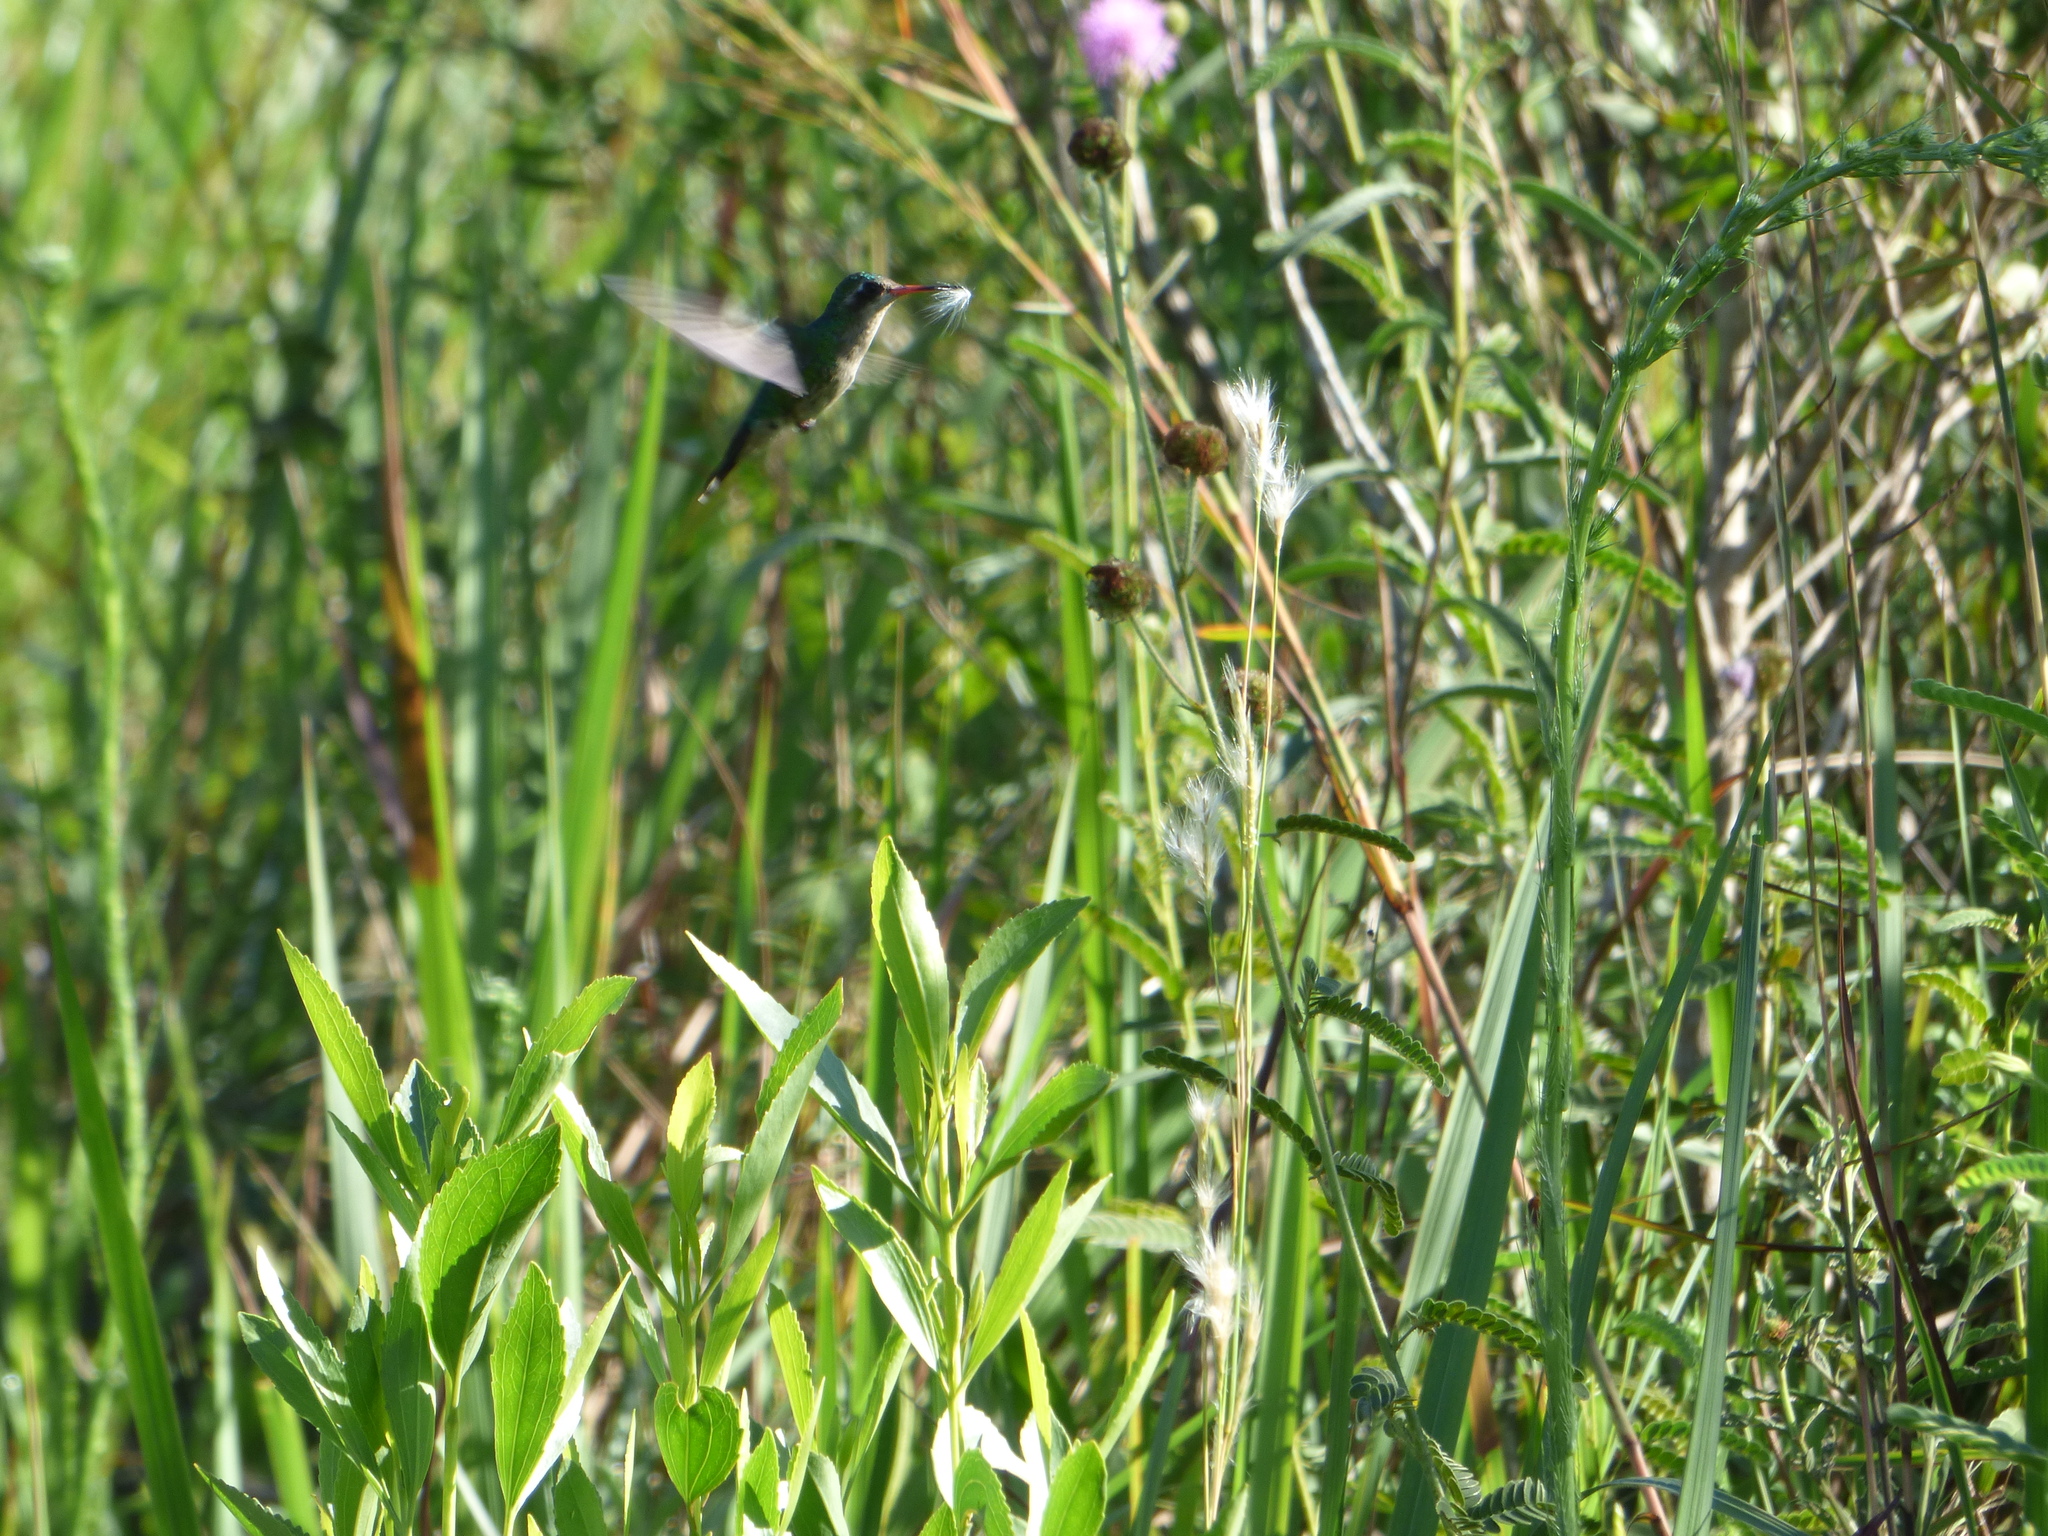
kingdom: Animalia
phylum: Chordata
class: Aves
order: Apodiformes
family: Trochilidae
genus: Chlorostilbon
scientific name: Chlorostilbon lucidus
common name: Glittering-bellied emerald
